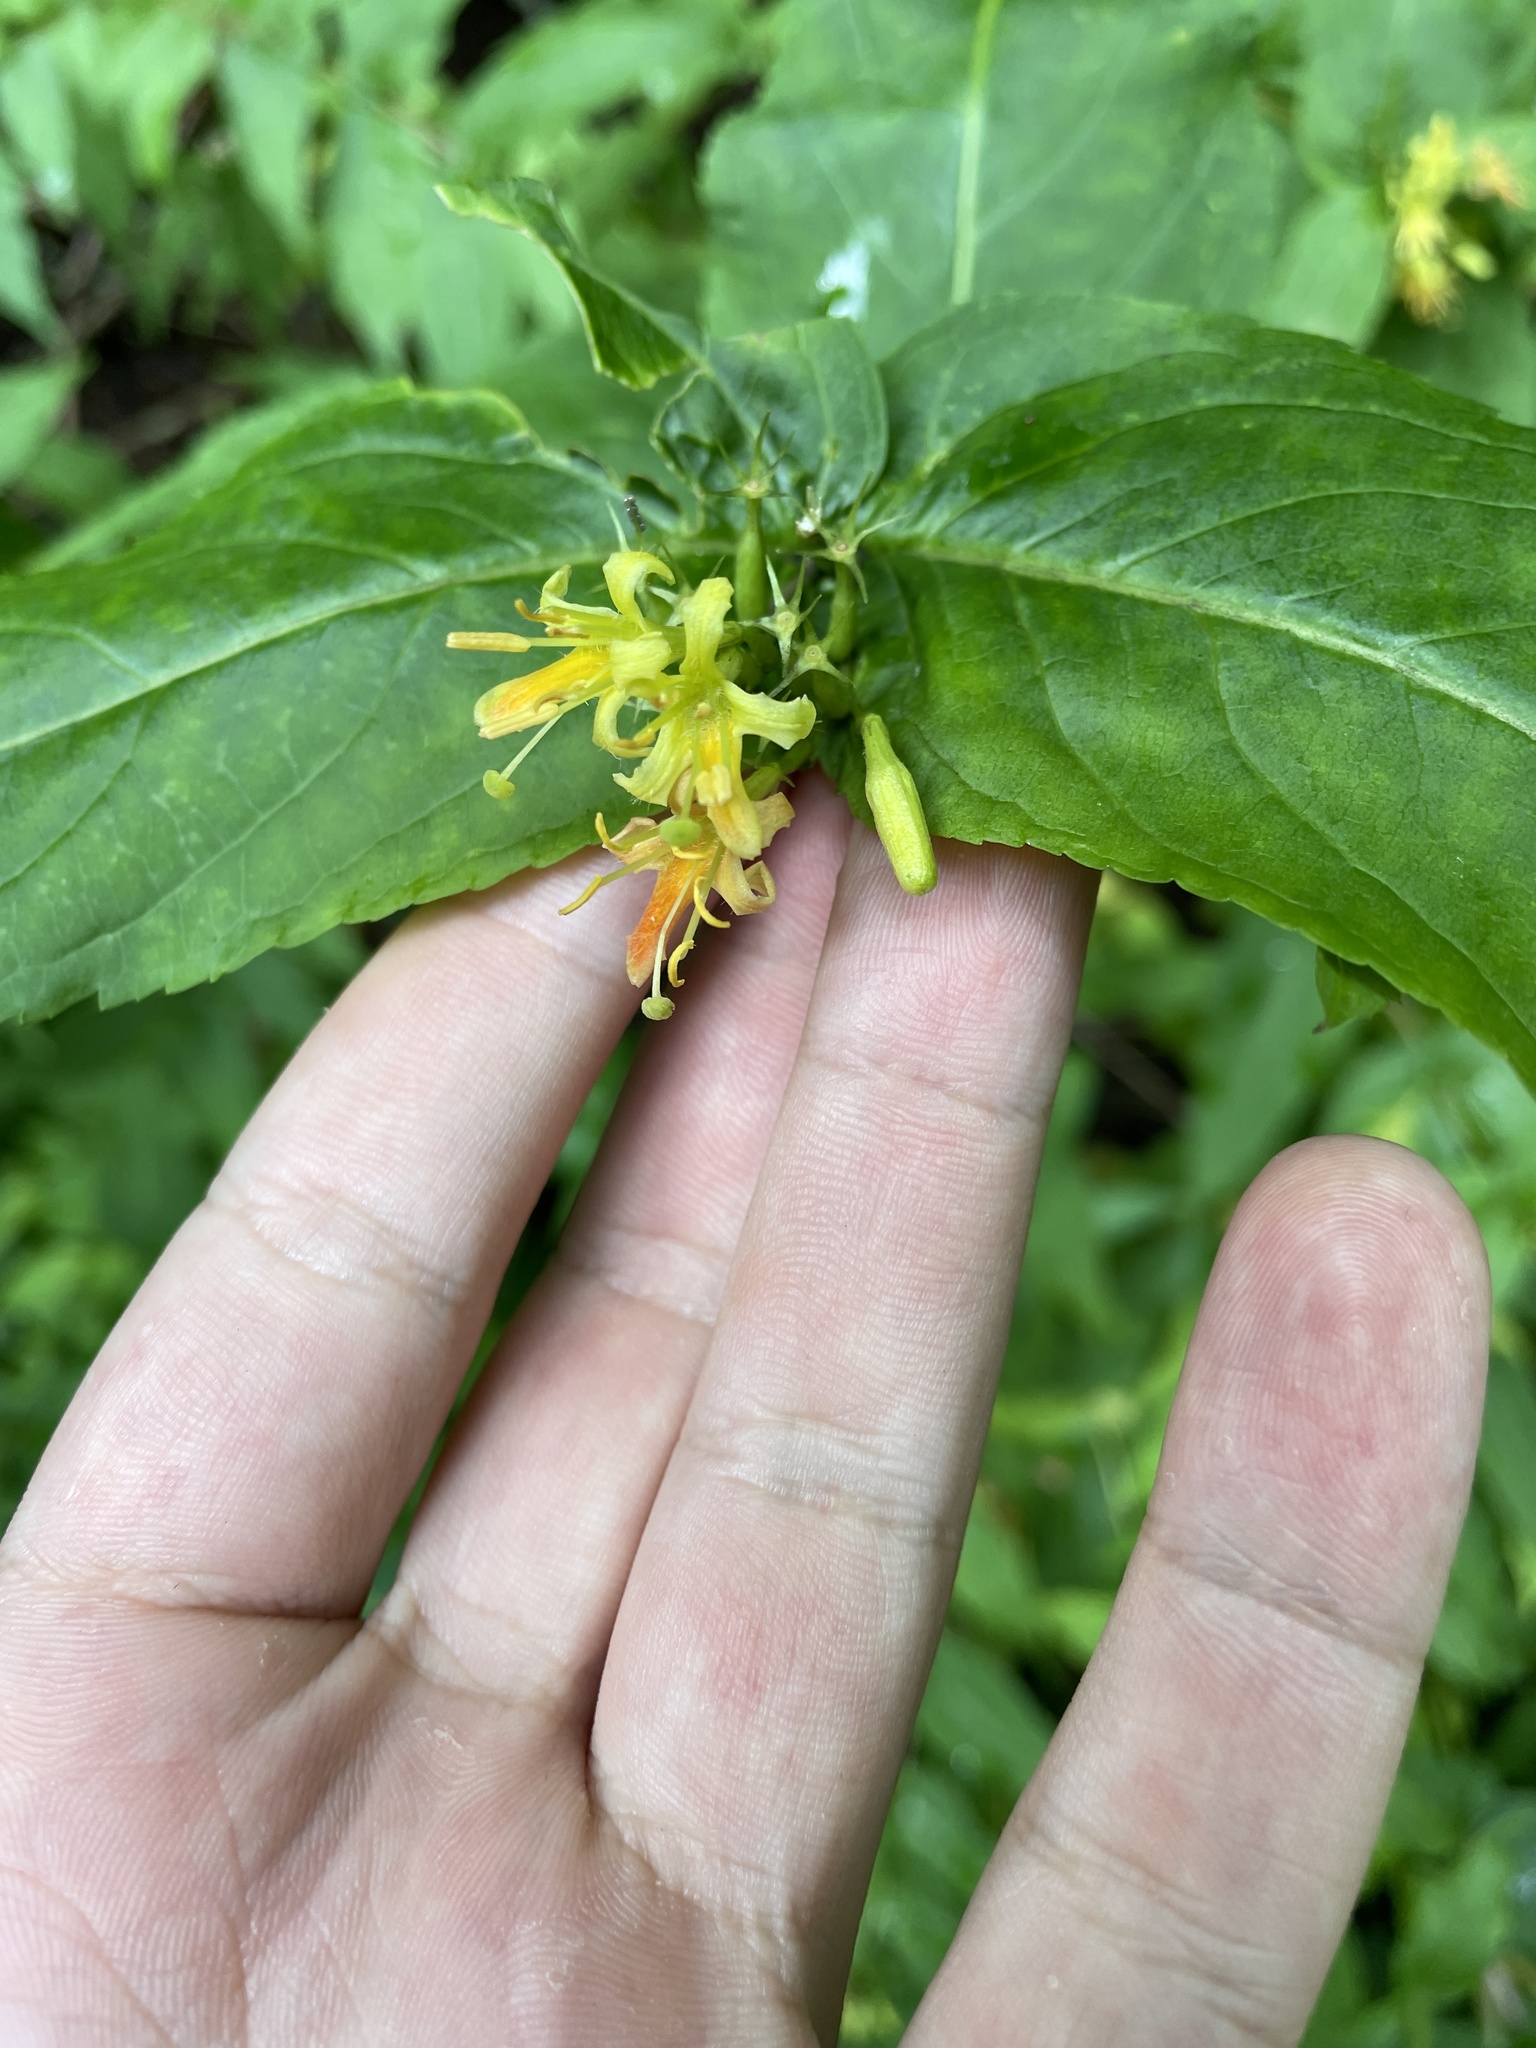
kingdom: Plantae
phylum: Tracheophyta
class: Magnoliopsida
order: Dipsacales
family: Caprifoliaceae
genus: Diervilla
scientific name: Diervilla sessilifolia
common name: Bush-honeysuckle
